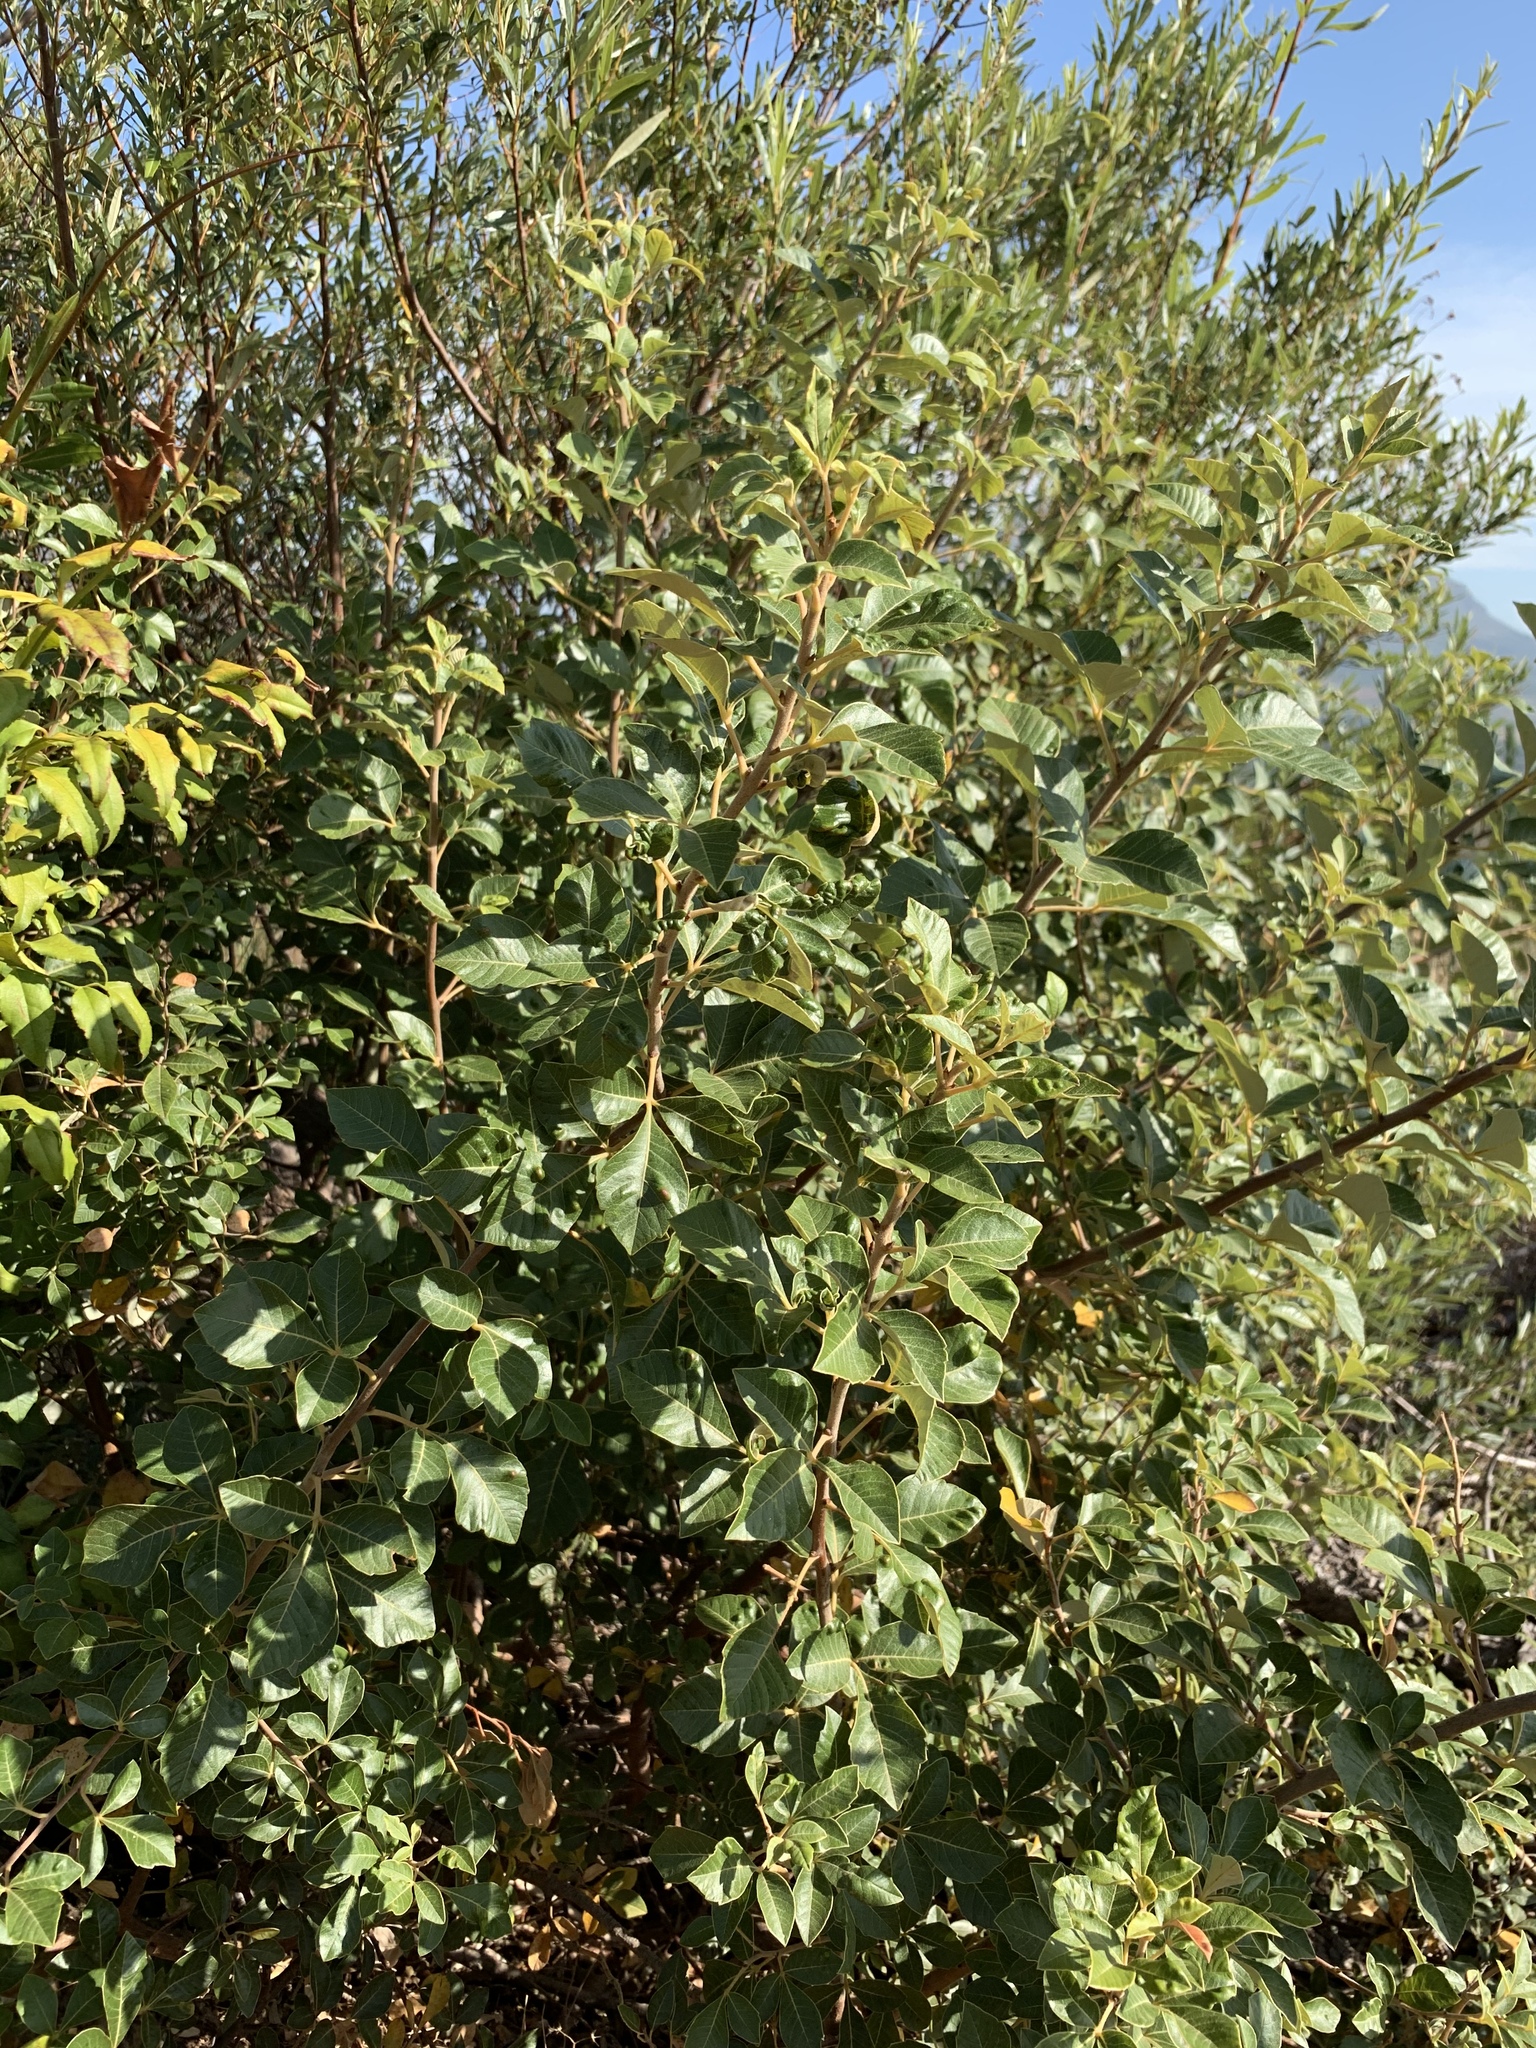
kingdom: Plantae
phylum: Tracheophyta
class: Magnoliopsida
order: Sapindales
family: Anacardiaceae
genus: Searsia
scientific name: Searsia tomentosa
